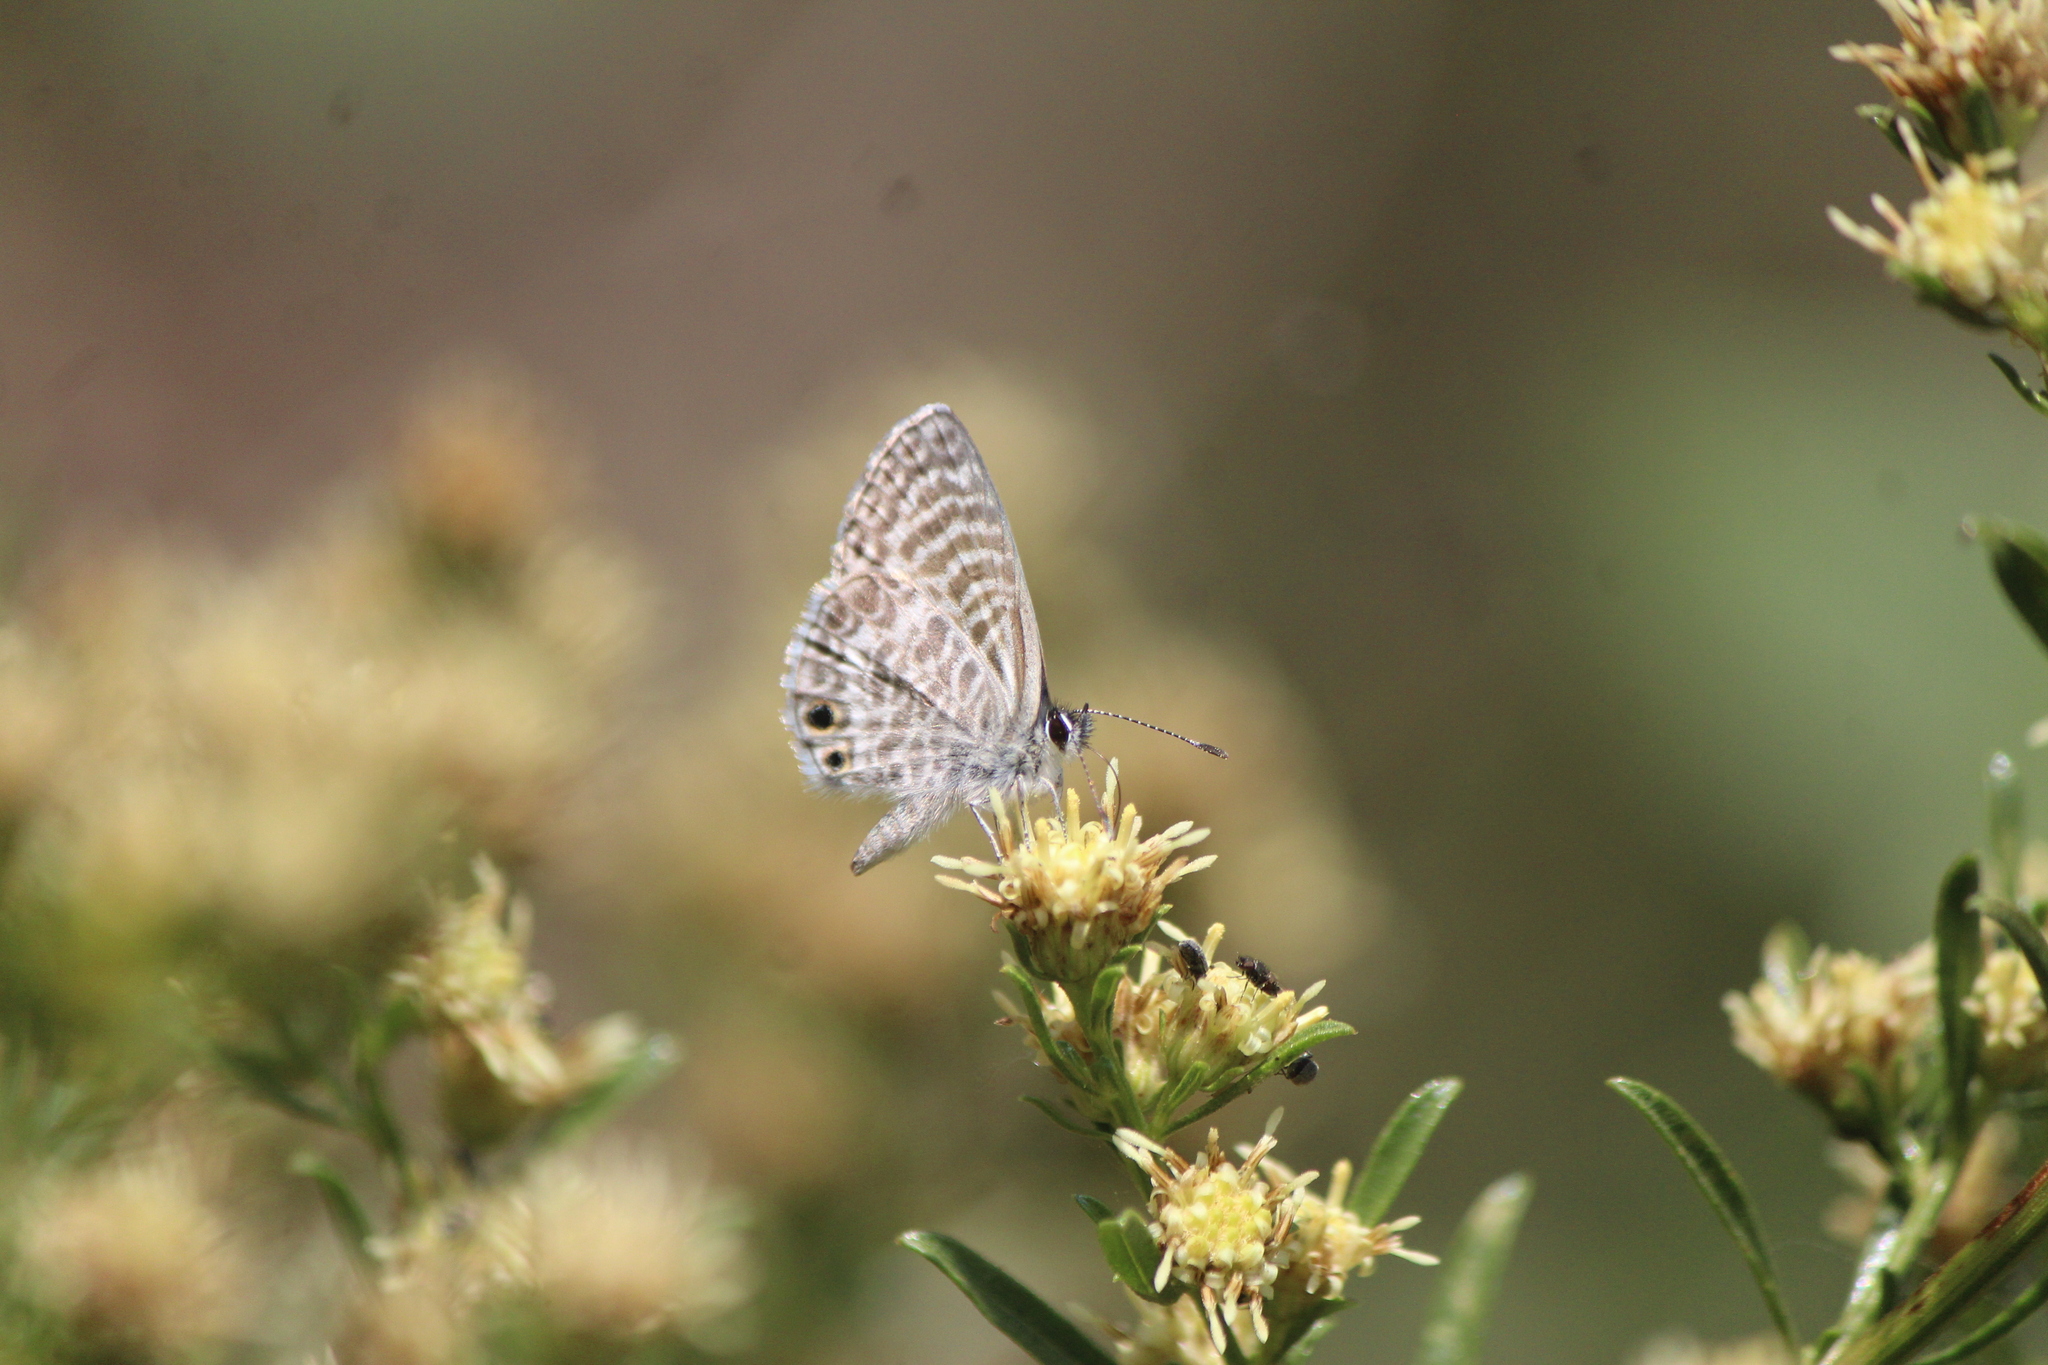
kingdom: Animalia
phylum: Arthropoda
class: Insecta
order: Lepidoptera
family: Lycaenidae
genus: Leptotes
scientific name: Leptotes marina
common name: Marine blue
